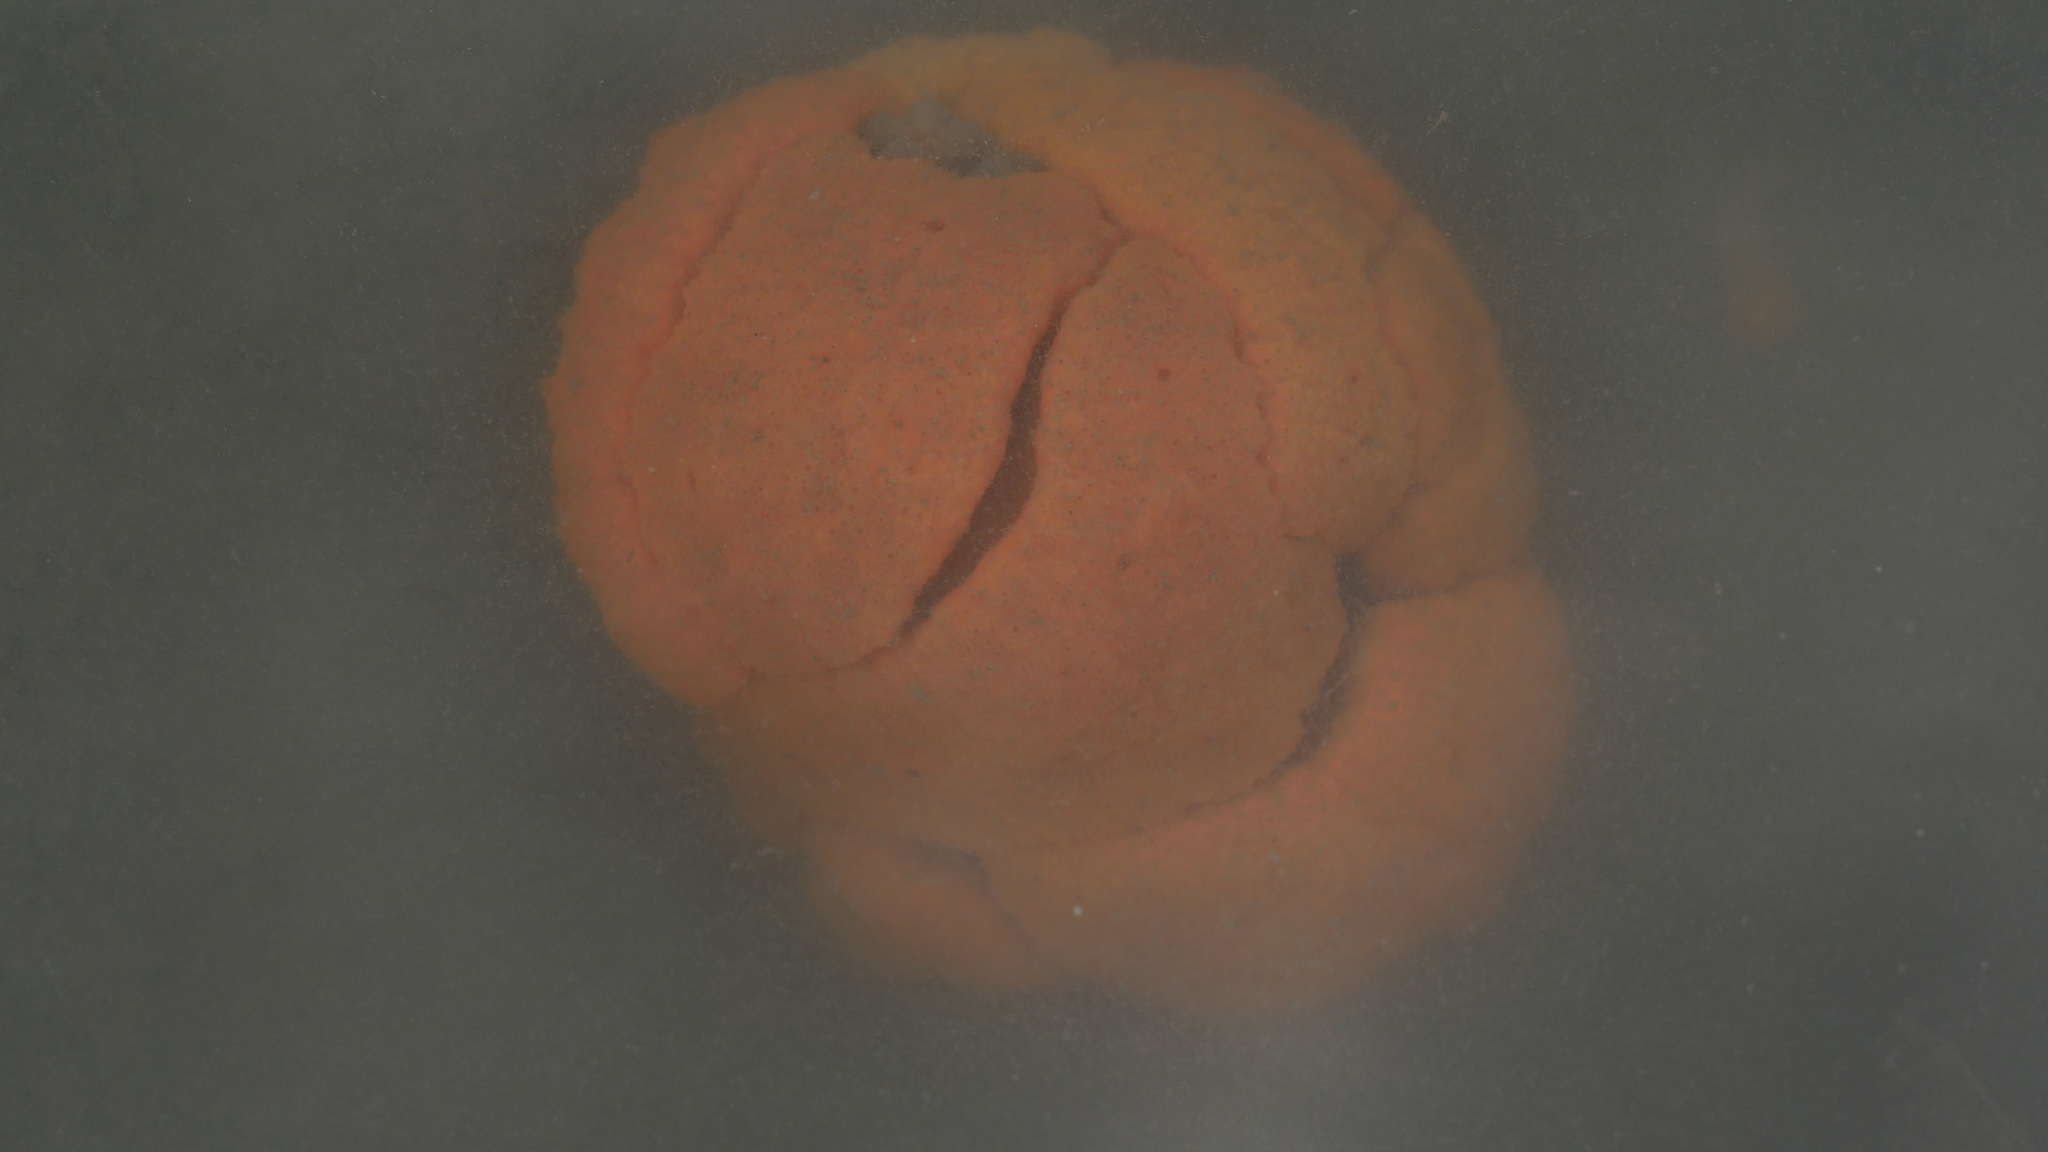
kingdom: Animalia
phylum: Chordata
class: Ascidiacea
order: Aplousobranchia
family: Polyclinidae
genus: Aplidium
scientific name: Aplidium stellatum
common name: Atlantic sea pork
